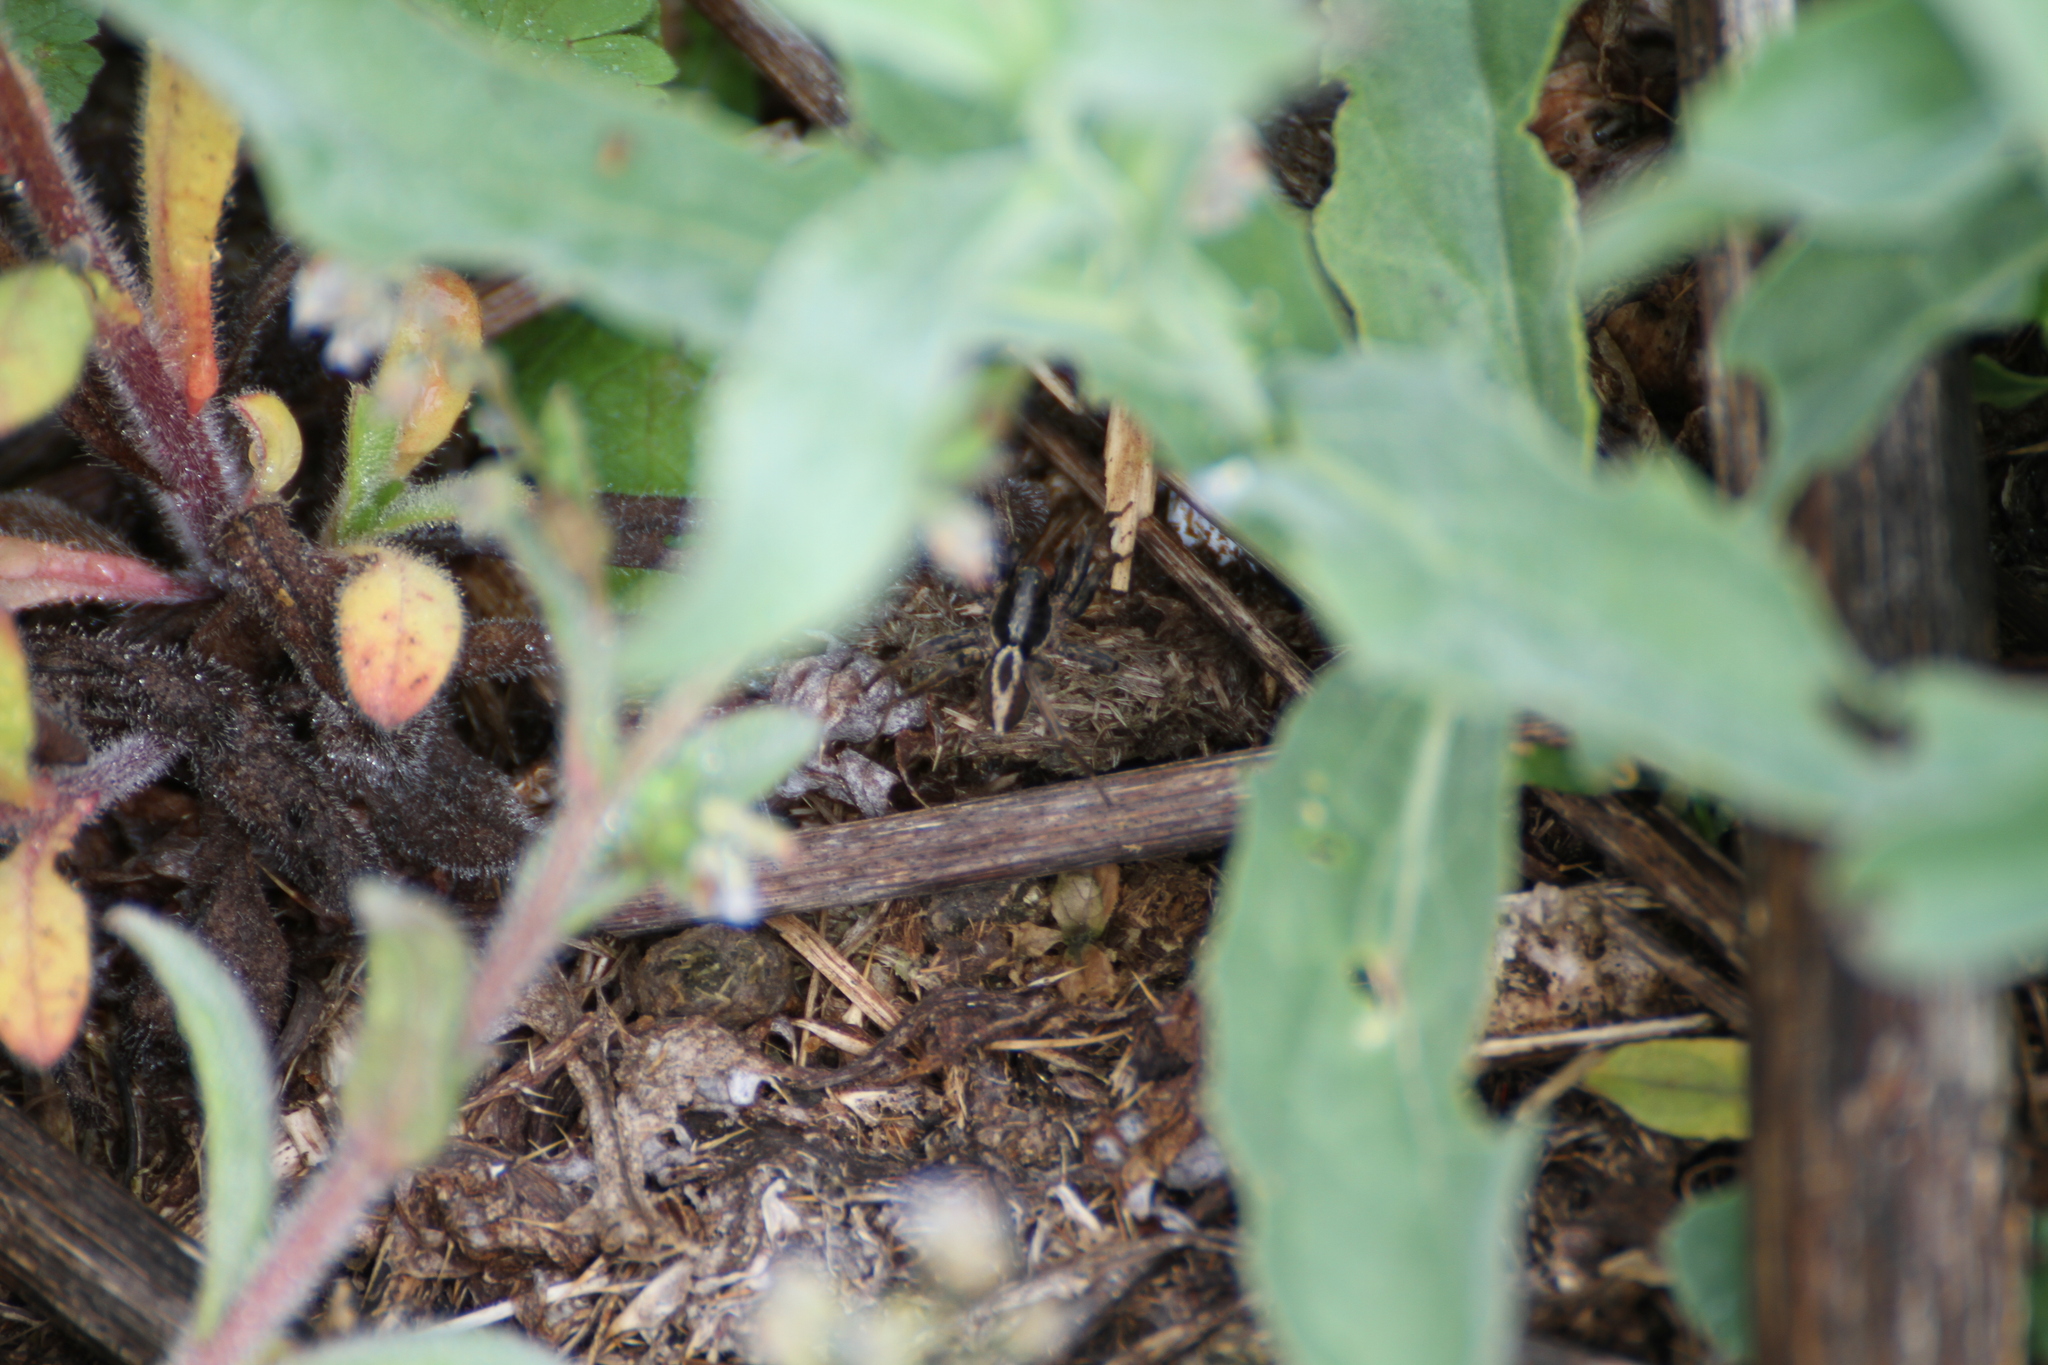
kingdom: Animalia
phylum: Arthropoda
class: Arachnida
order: Araneae
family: Lycosidae
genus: Alopecosa
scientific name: Alopecosa albofasciata
